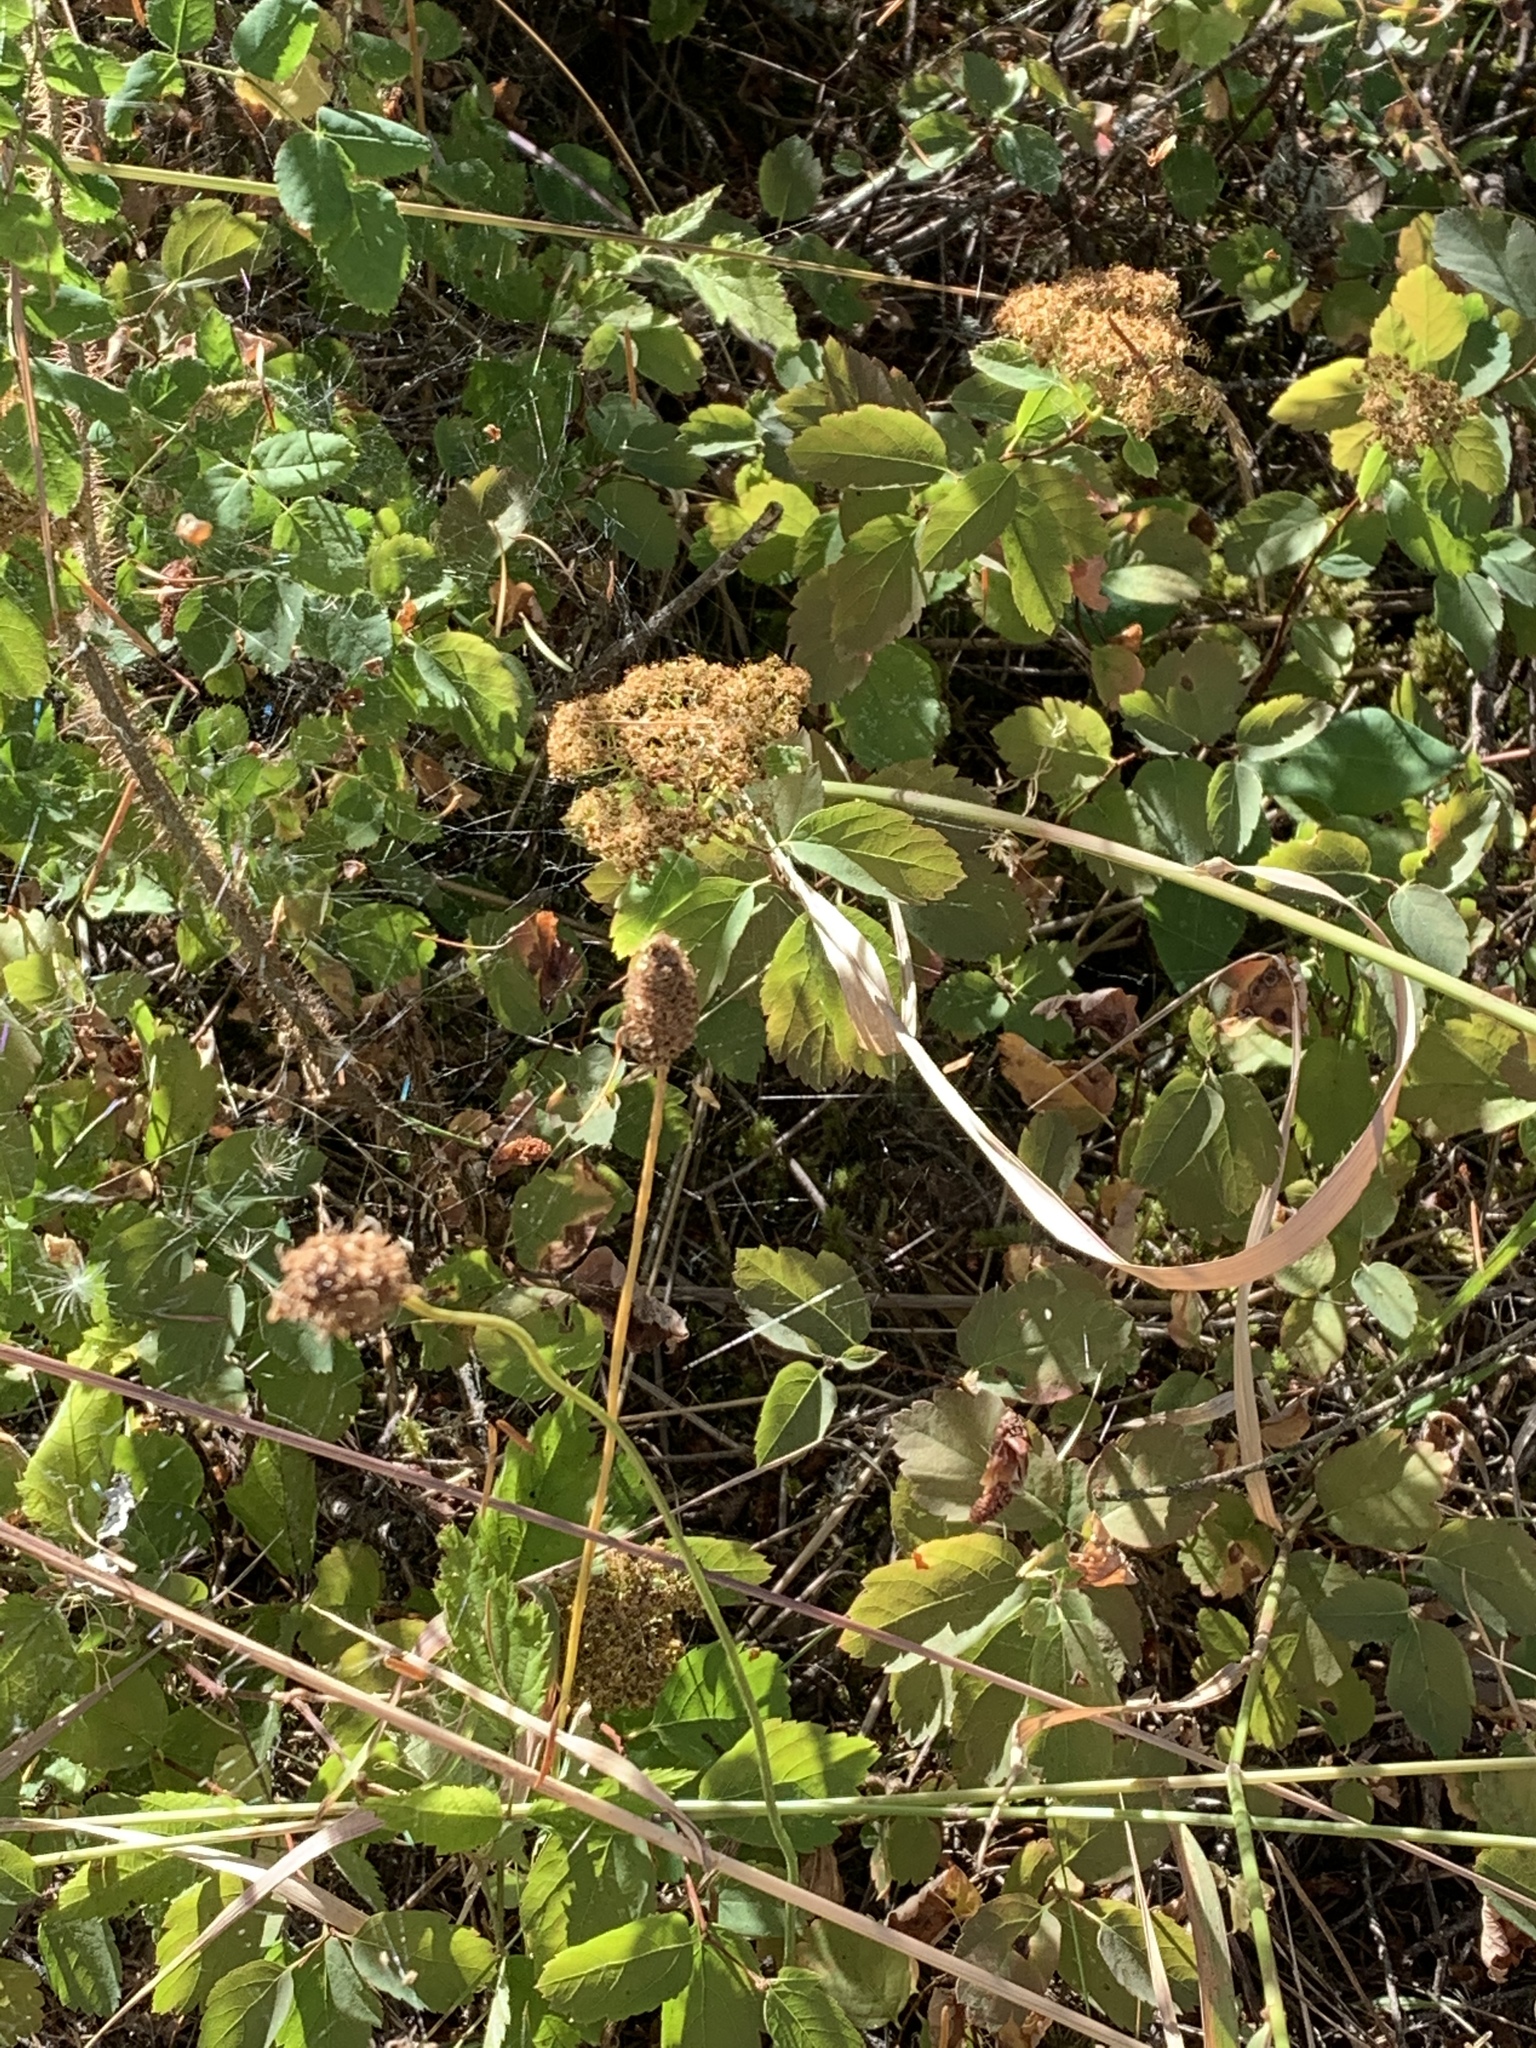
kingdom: Plantae
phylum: Tracheophyta
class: Magnoliopsida
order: Rosales
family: Rosaceae
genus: Spiraea
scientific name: Spiraea lucida
